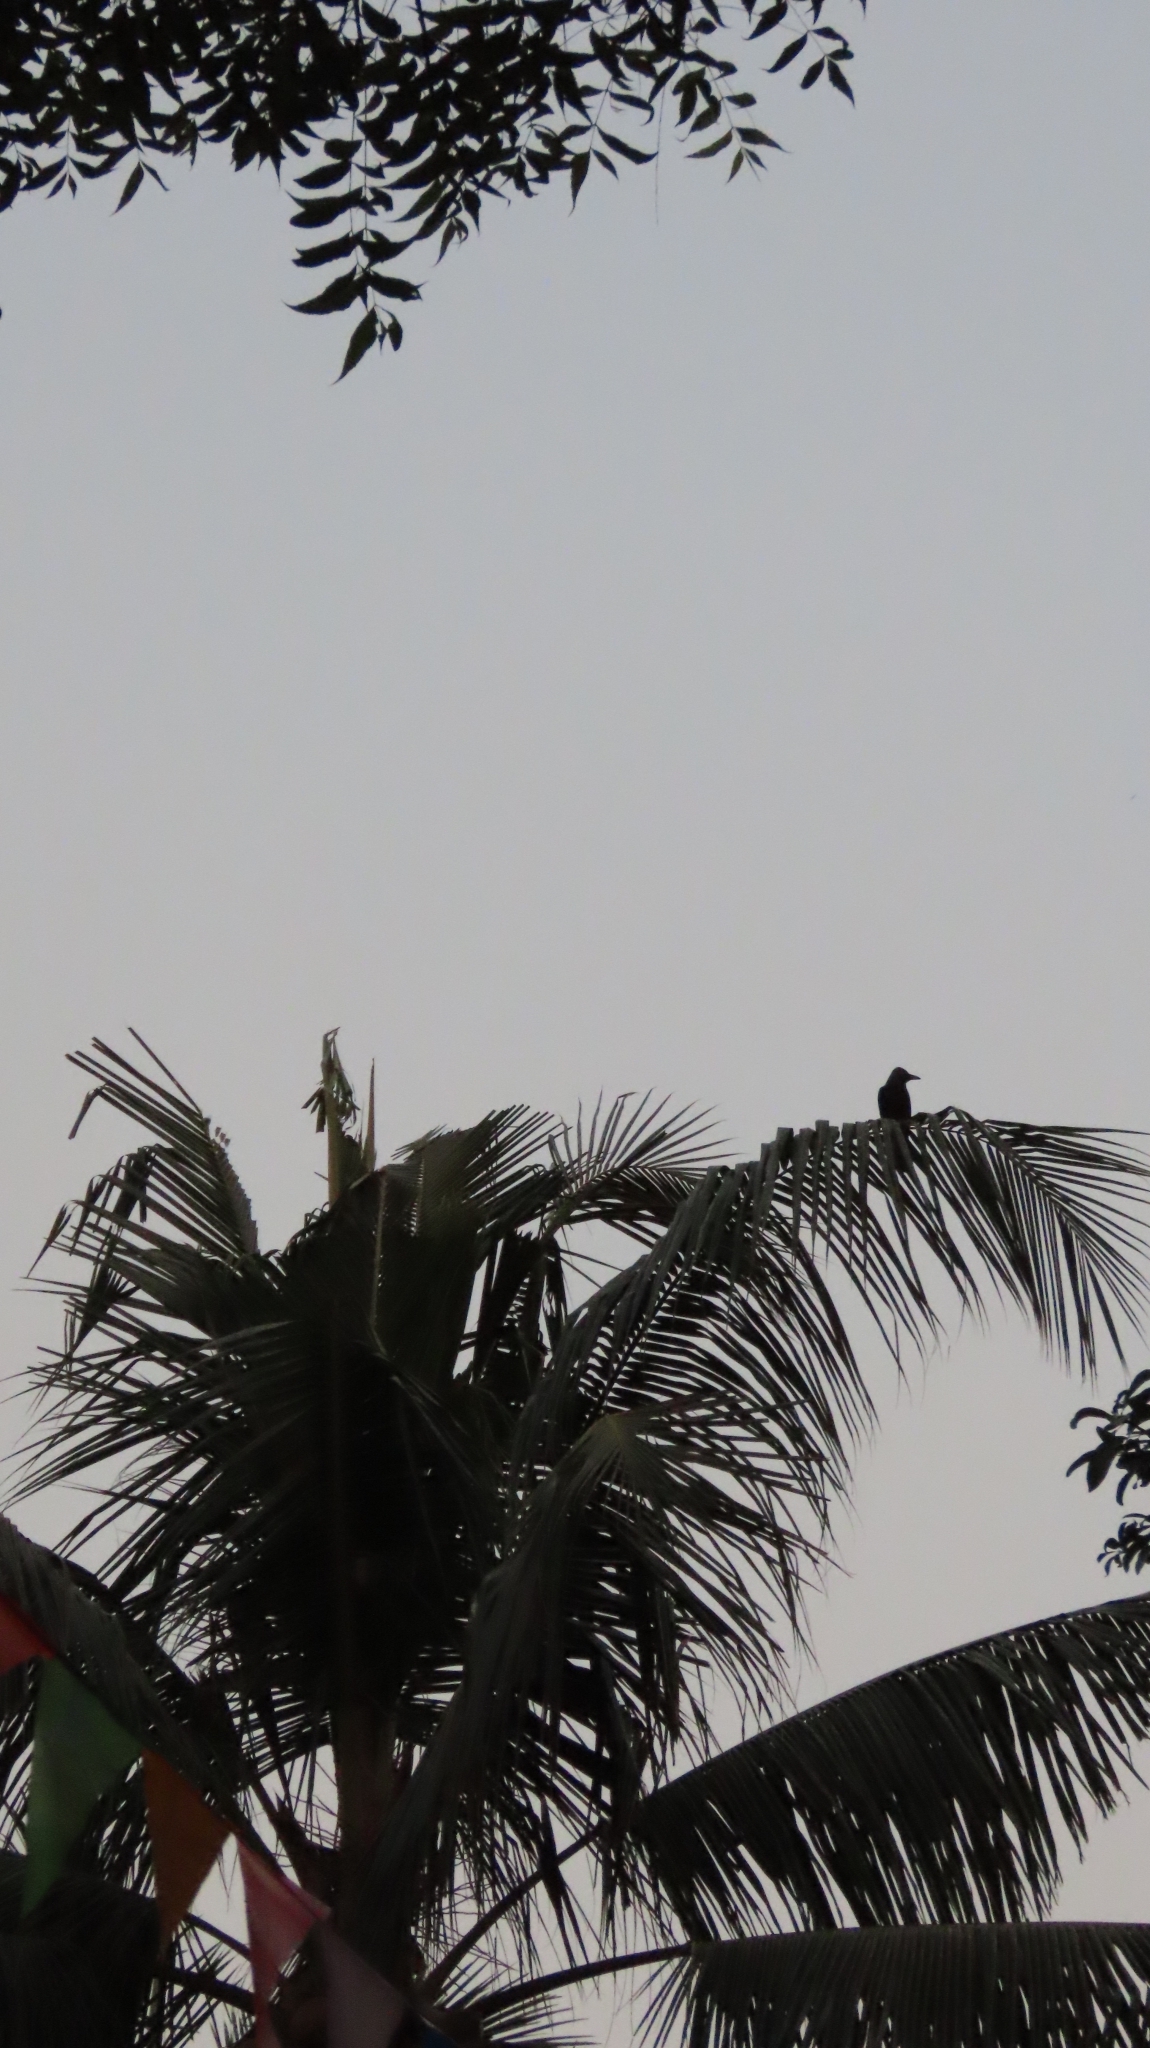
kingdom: Animalia
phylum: Chordata
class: Aves
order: Passeriformes
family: Corvidae
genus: Corvus
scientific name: Corvus splendens
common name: House crow
